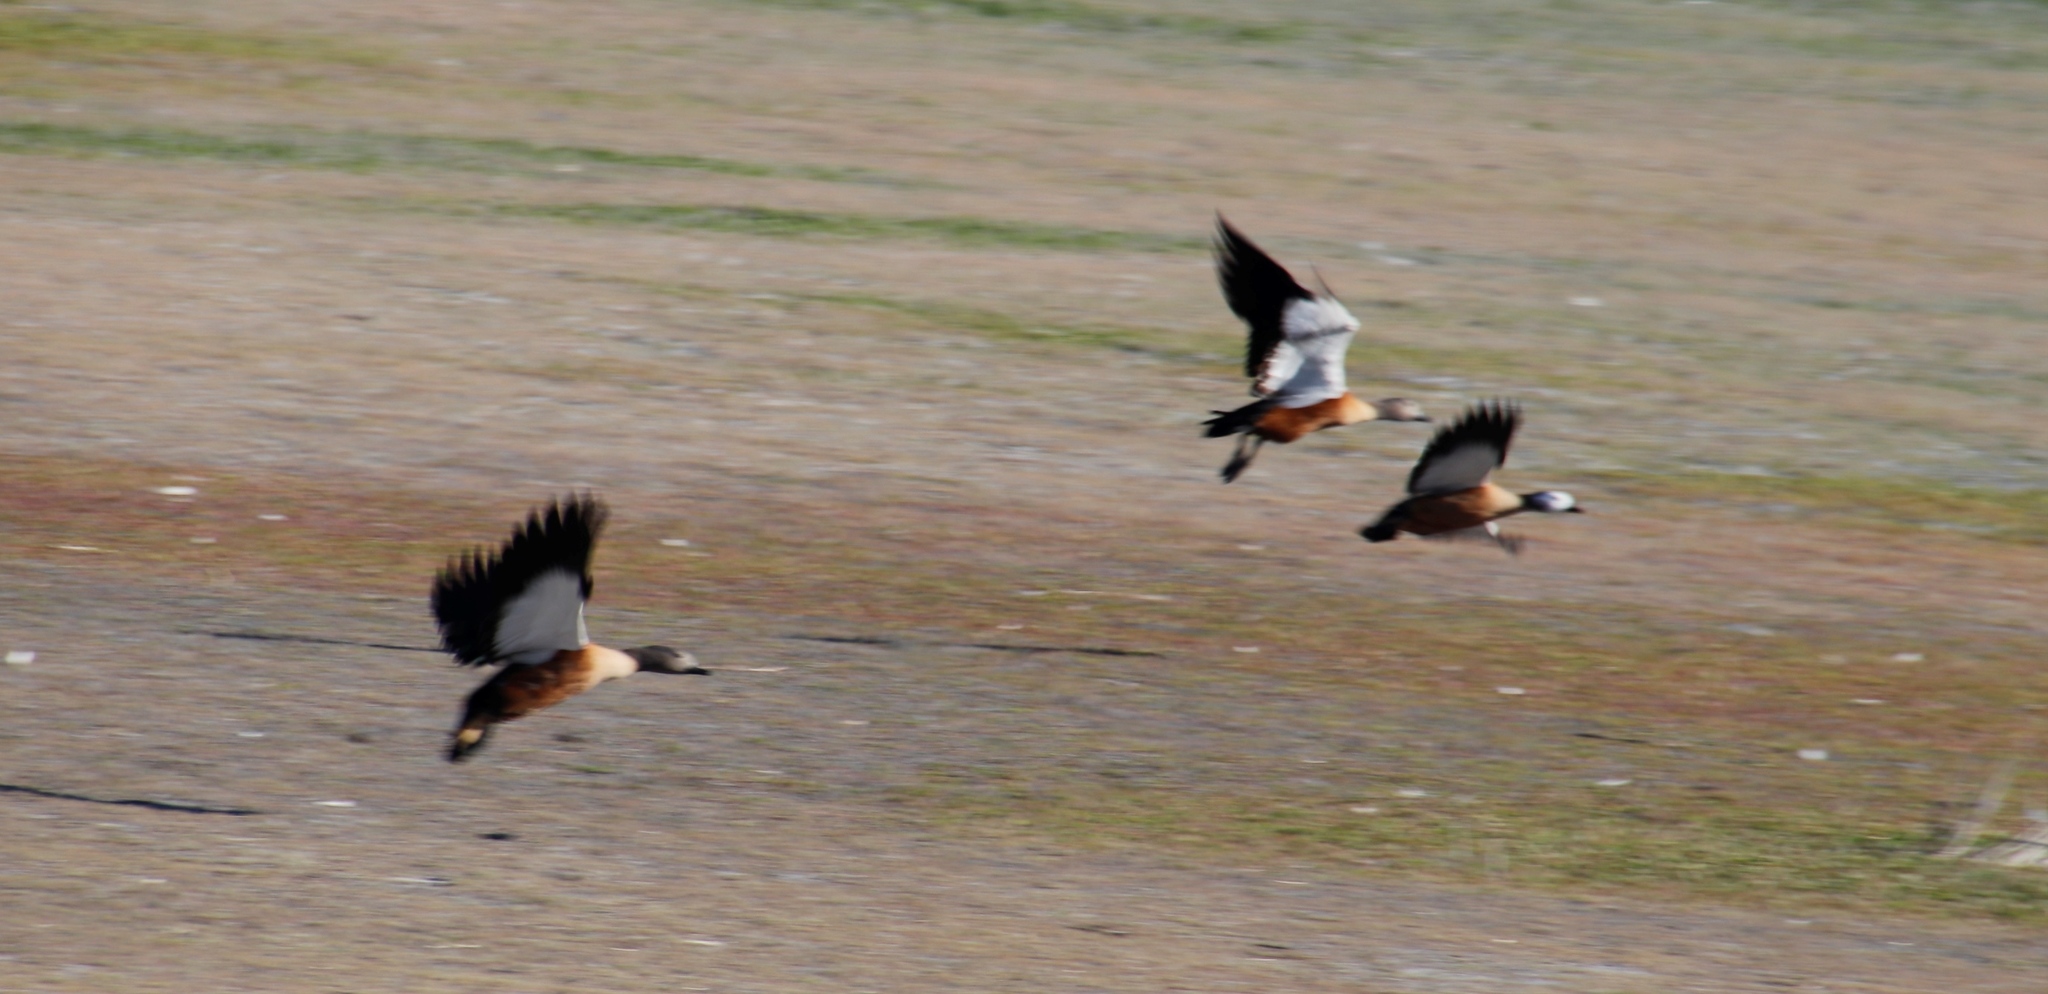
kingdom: Animalia
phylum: Chordata
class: Aves
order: Anseriformes
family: Anatidae
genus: Tadorna
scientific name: Tadorna cana
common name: South african shelduck
